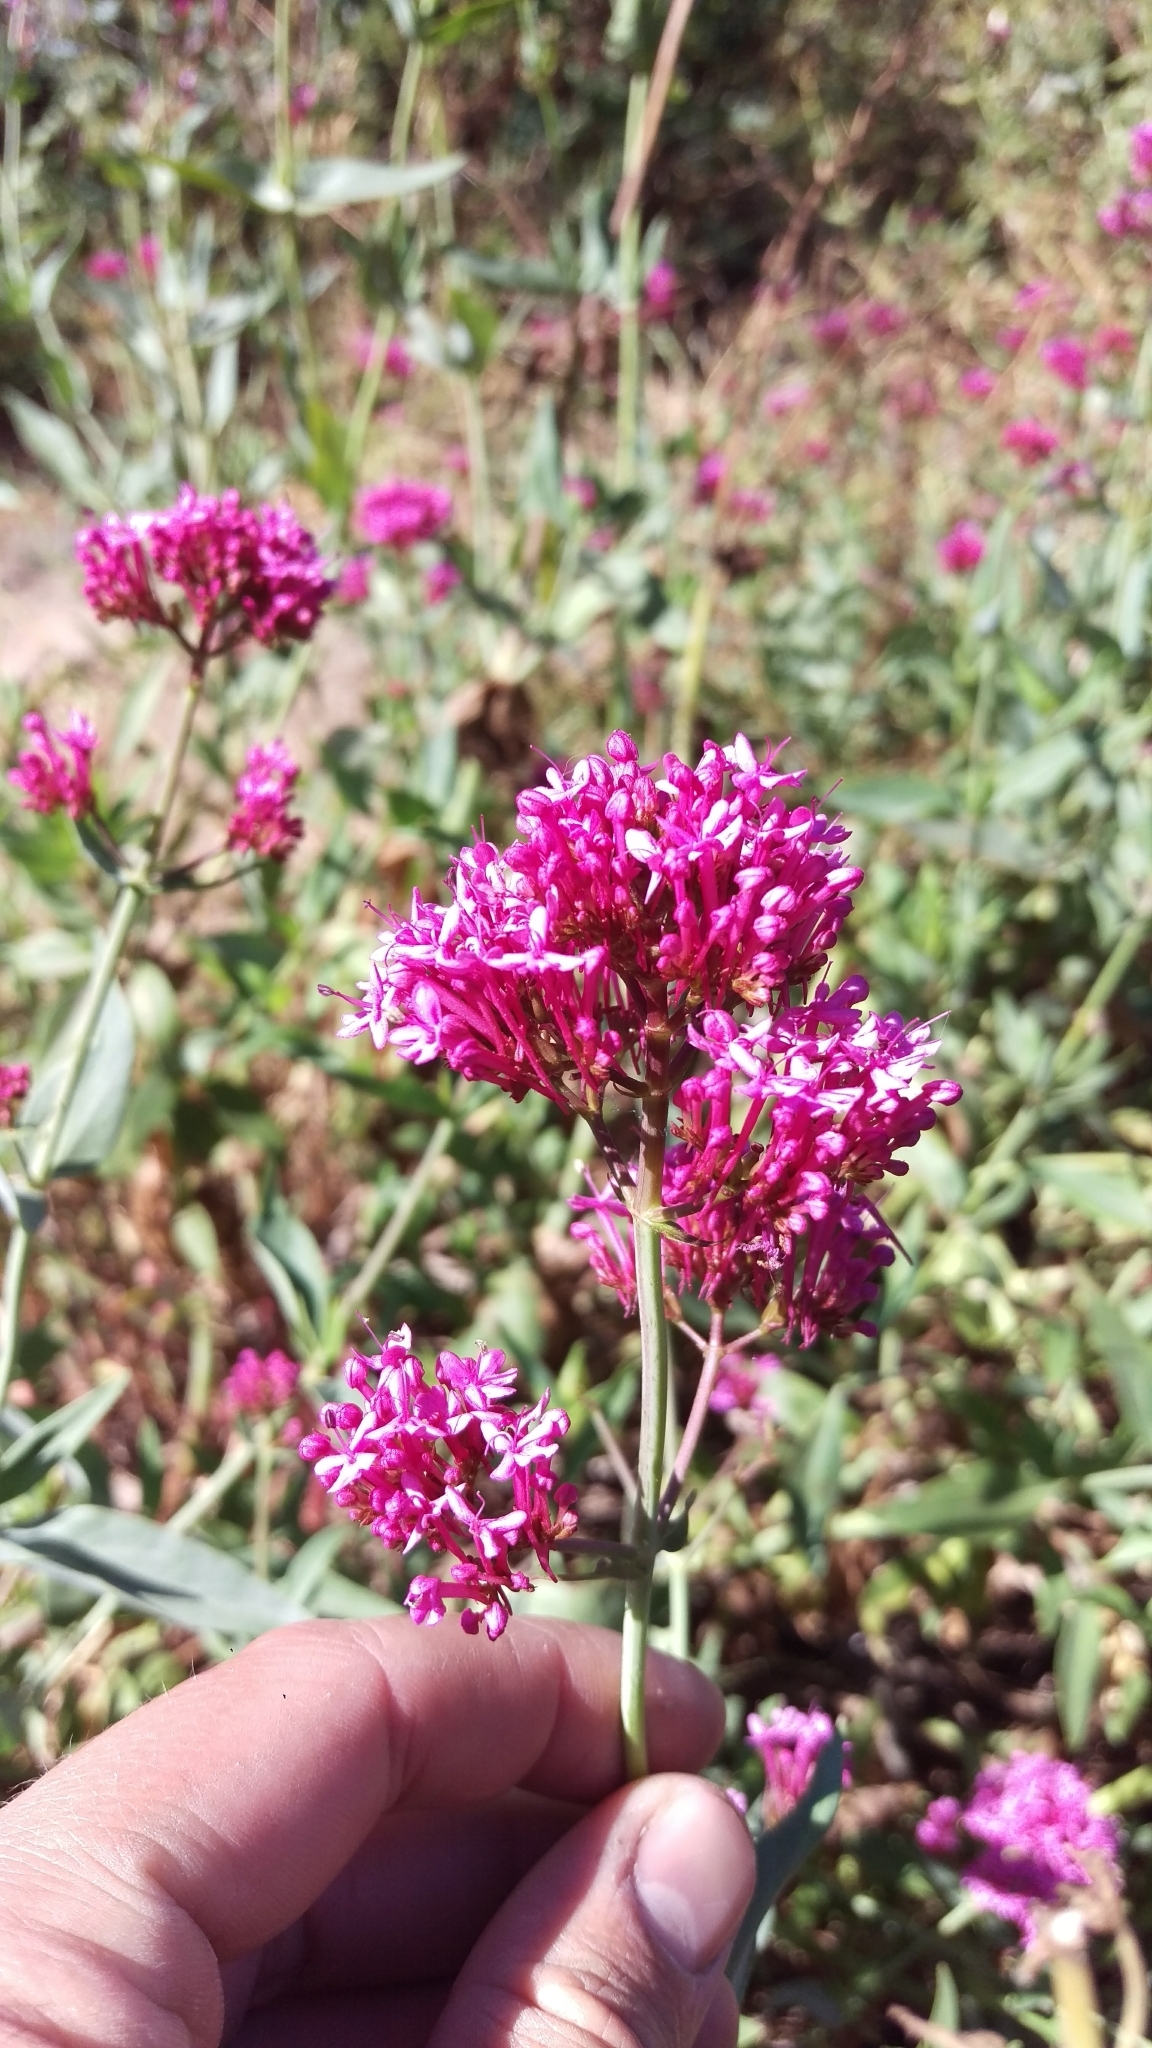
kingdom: Plantae
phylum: Tracheophyta
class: Magnoliopsida
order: Dipsacales
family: Caprifoliaceae
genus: Centranthus
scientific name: Centranthus ruber
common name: Red valerian
